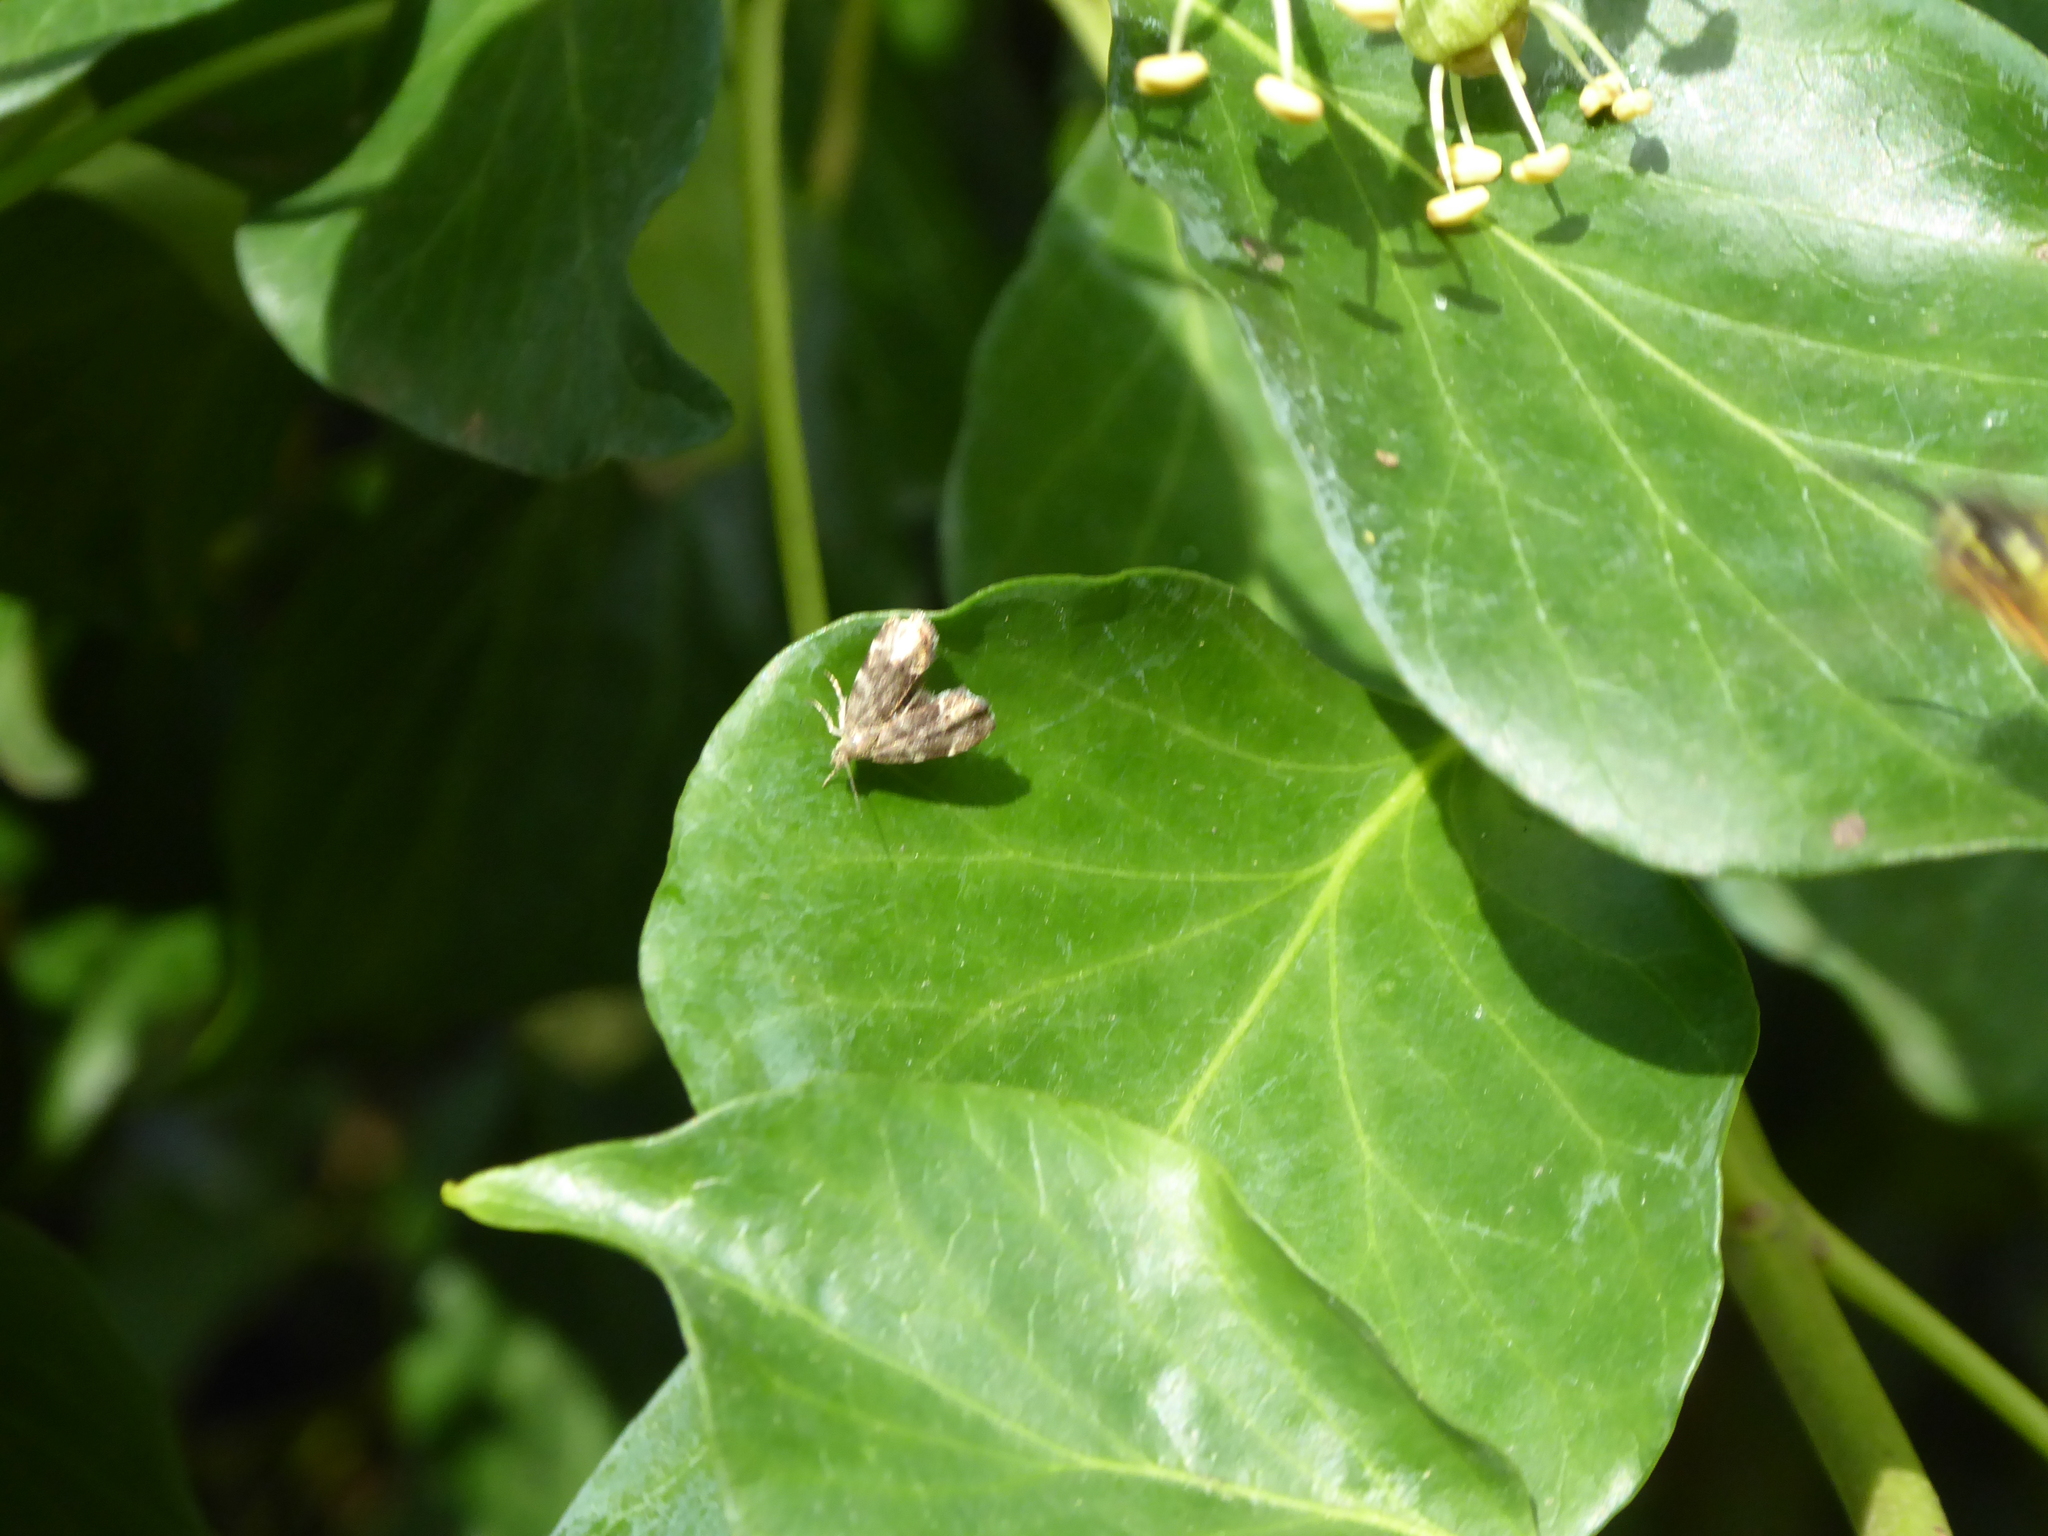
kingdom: Animalia
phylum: Arthropoda
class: Insecta
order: Lepidoptera
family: Choreutidae
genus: Anthophila
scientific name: Anthophila fabriciana
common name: Nettle-tap
